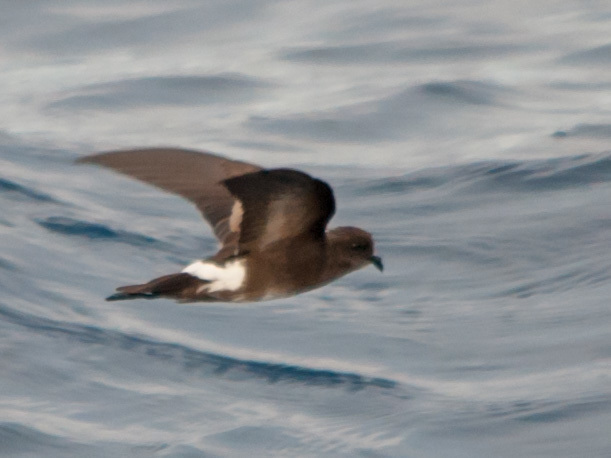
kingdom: Animalia
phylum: Chordata
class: Aves
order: Procellariiformes
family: Hydrobatidae
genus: Oceanites
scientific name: Oceanites gracilis
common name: Elliot's storm-petrel
